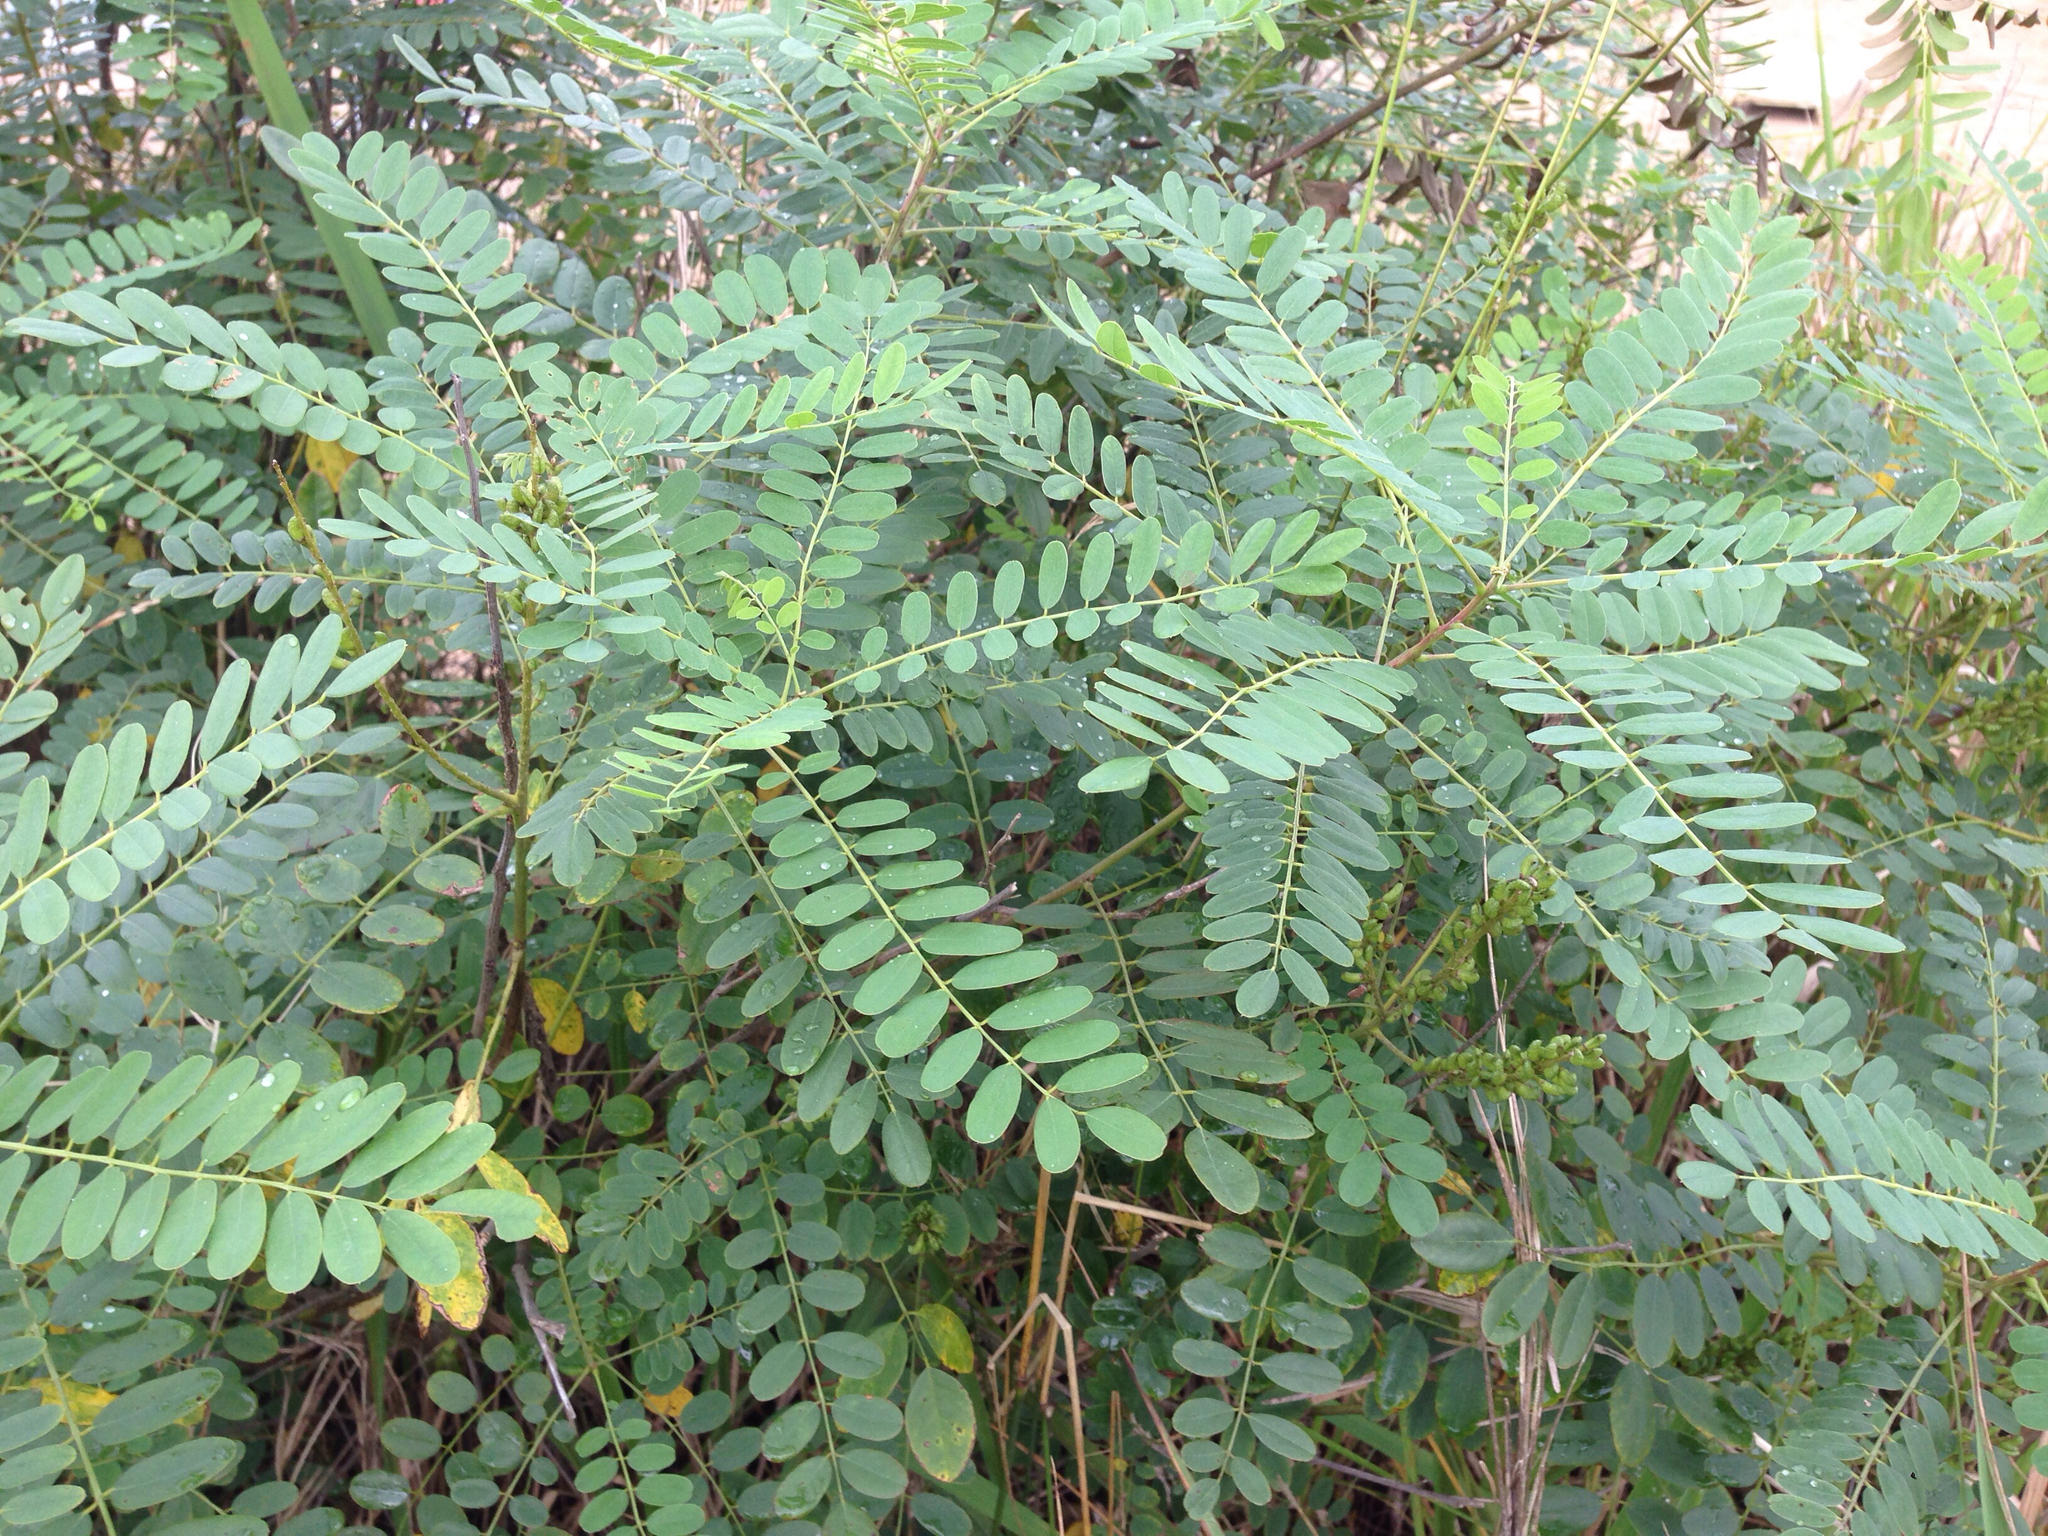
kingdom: Plantae
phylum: Tracheophyta
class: Magnoliopsida
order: Fabales
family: Fabaceae
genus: Amorpha
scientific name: Amorpha fruticosa
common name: False indigo
